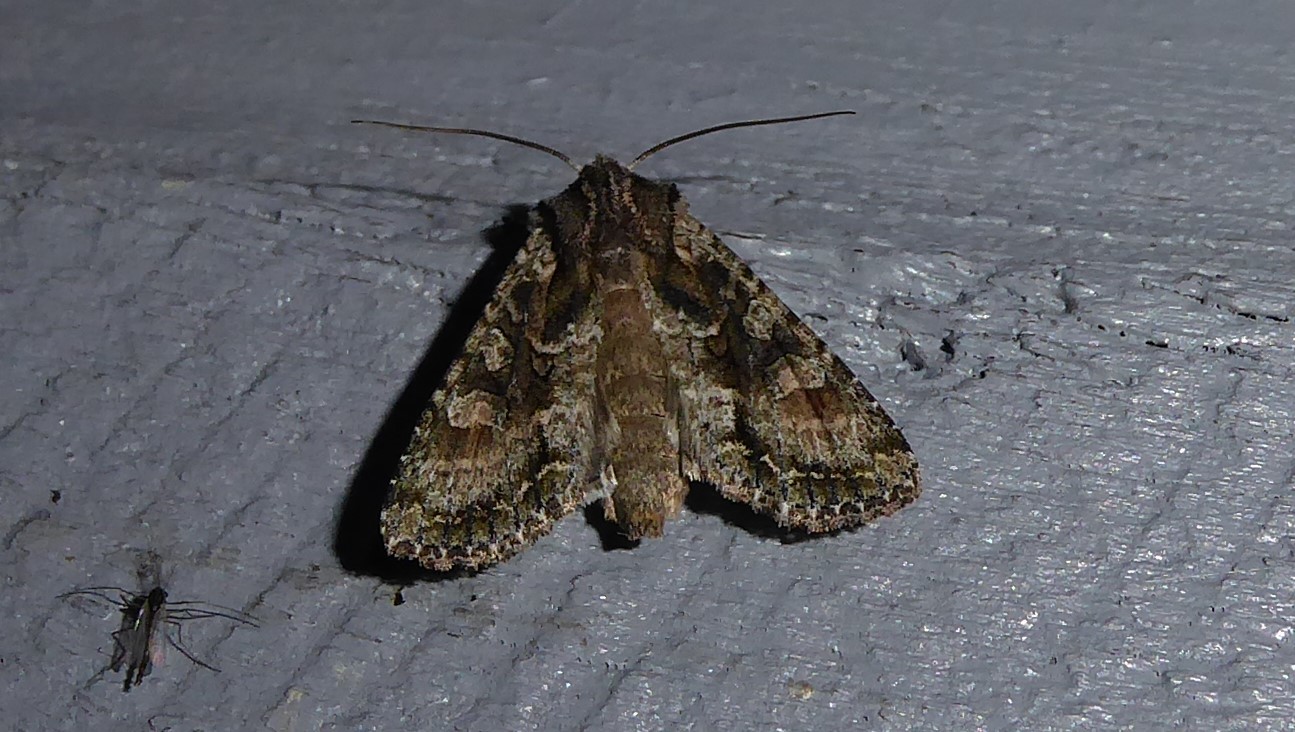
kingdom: Animalia
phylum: Arthropoda
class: Insecta
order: Lepidoptera
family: Noctuidae
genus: Ichneutica
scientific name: Ichneutica mutans
